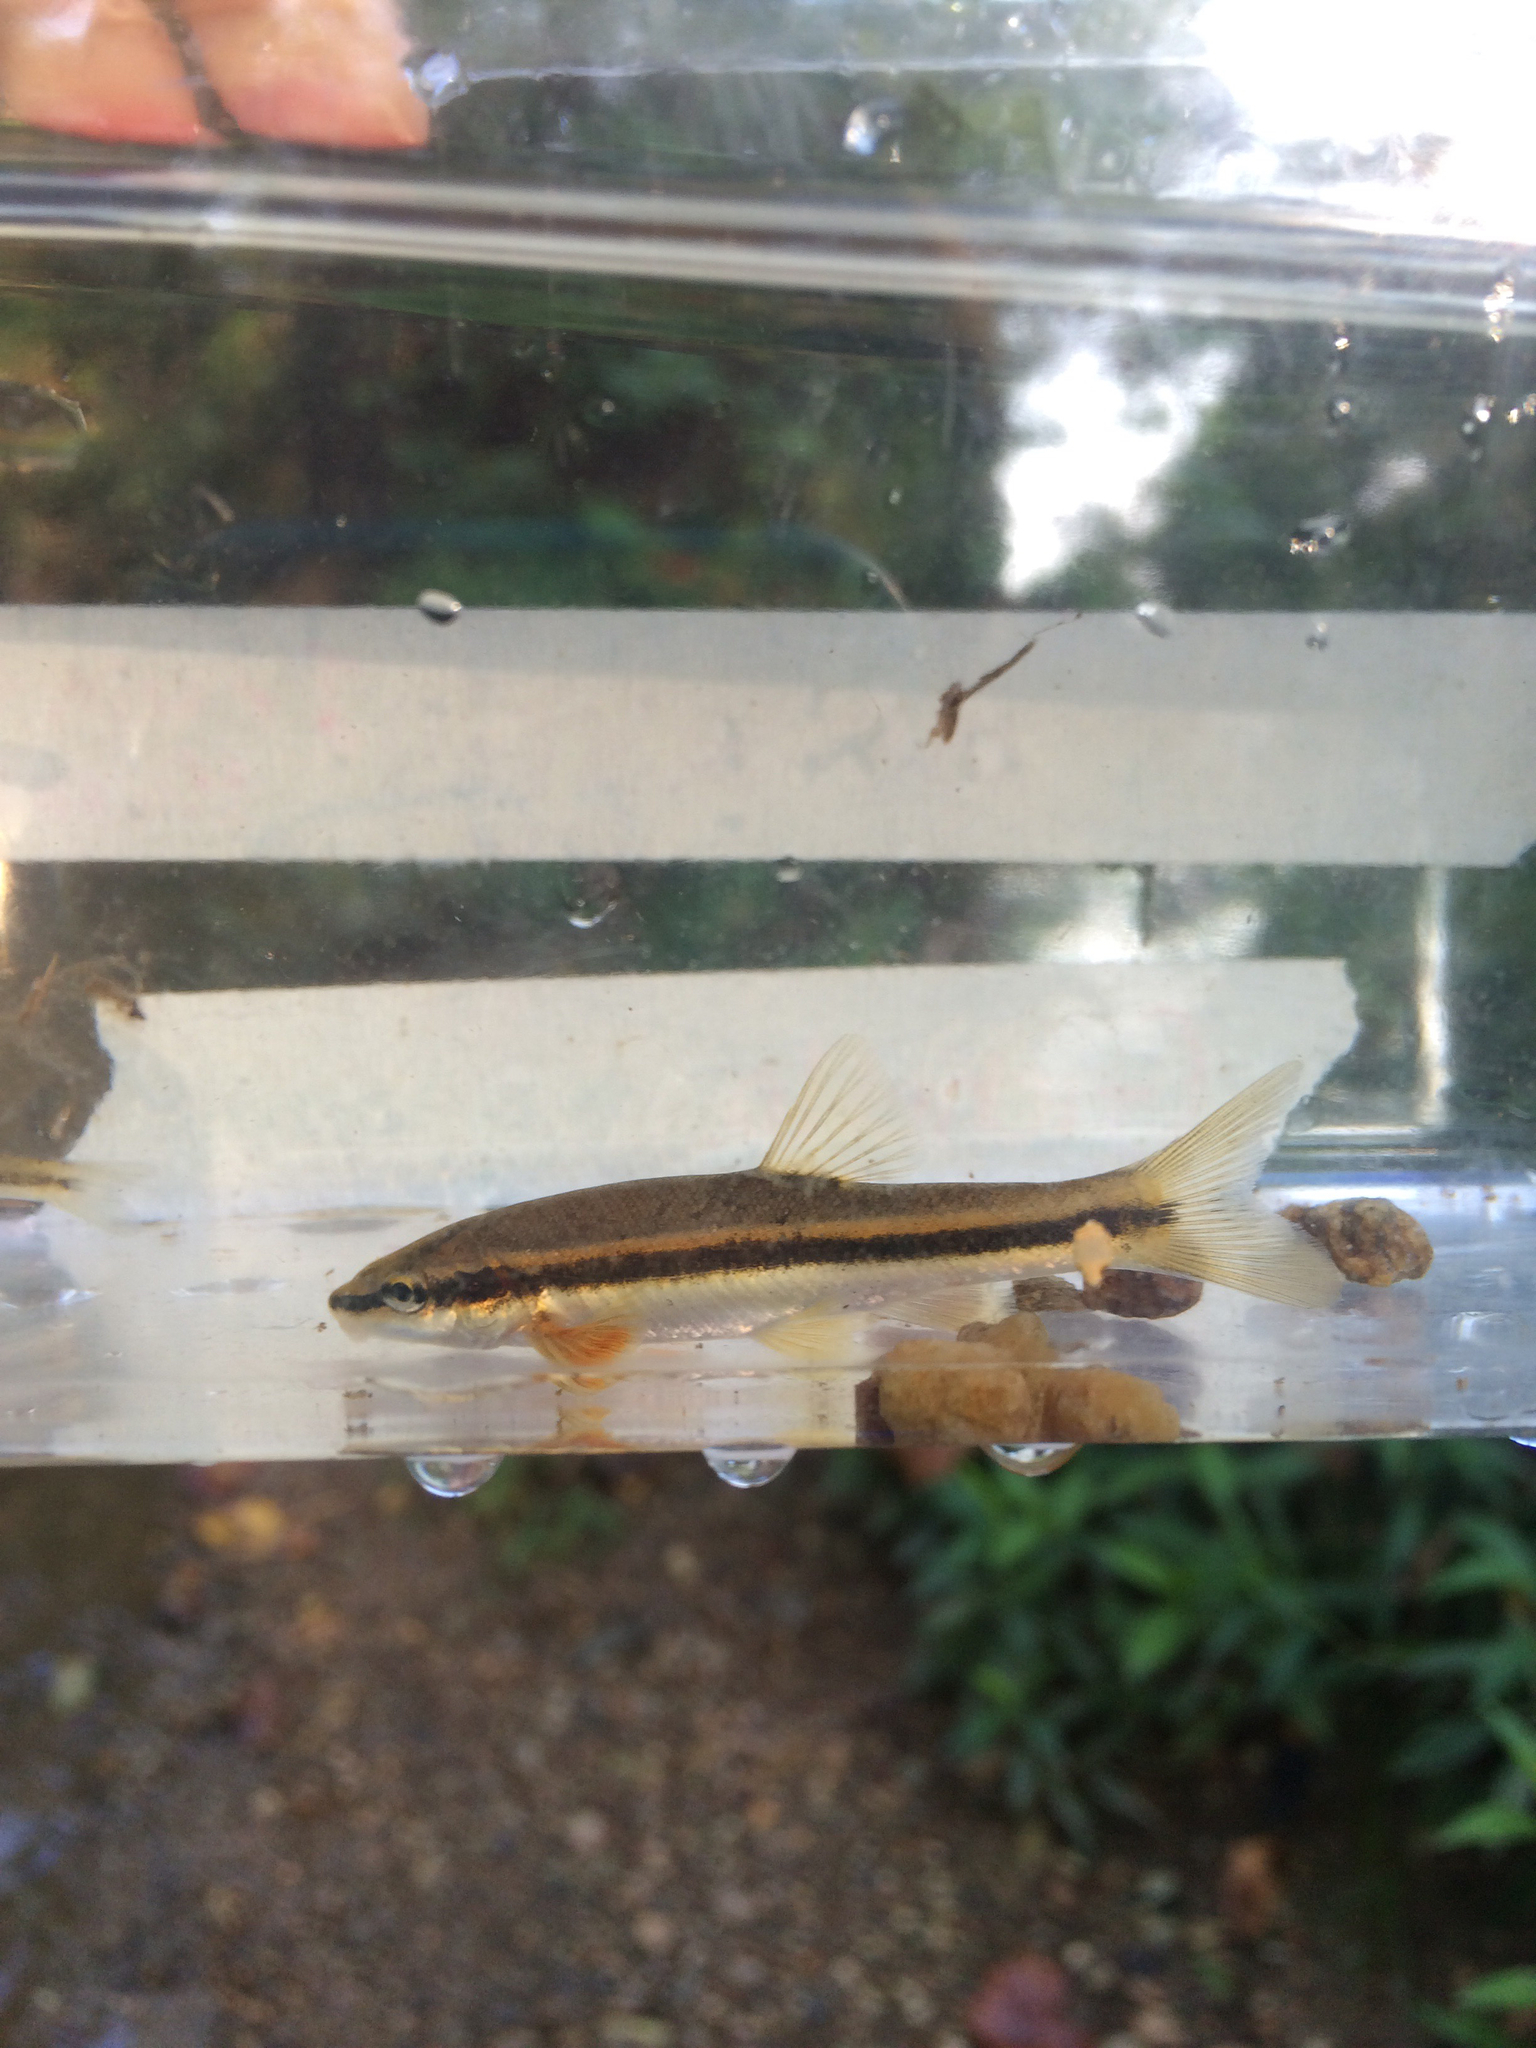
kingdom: Animalia
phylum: Chordata
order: Cypriniformes
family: Cyprinidae
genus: Rhinichthys
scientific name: Rhinichthys atratulus
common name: Eastern blacknose dace
